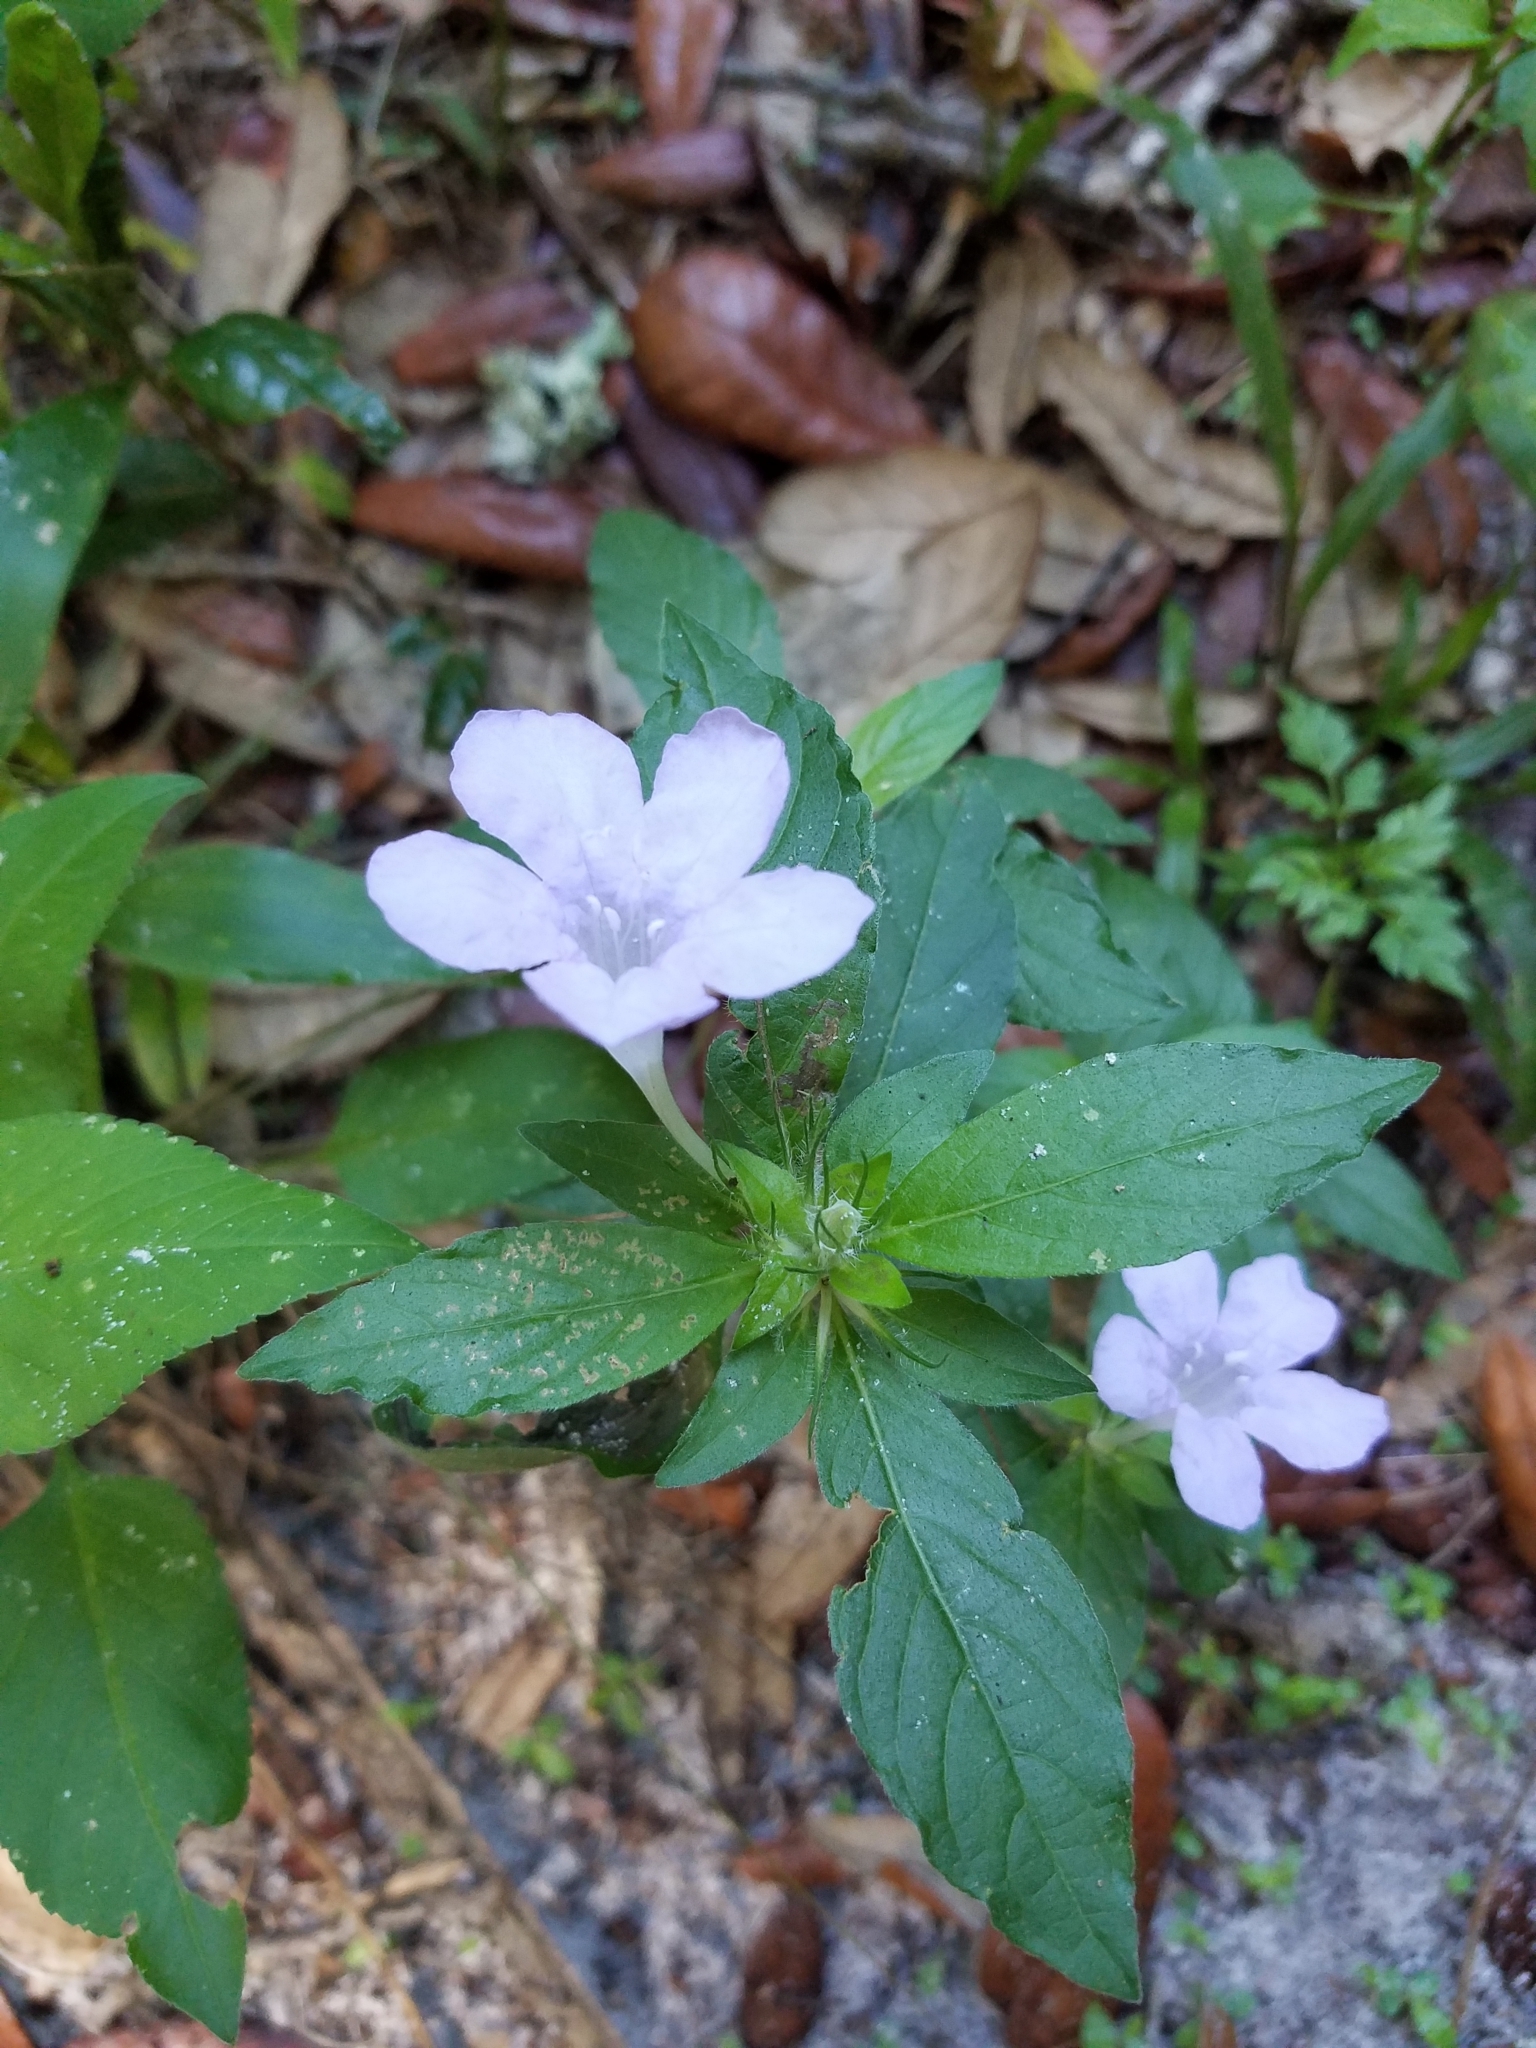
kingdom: Plantae
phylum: Tracheophyta
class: Magnoliopsida
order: Lamiales
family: Acanthaceae
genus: Ruellia
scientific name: Ruellia caroliniensis
